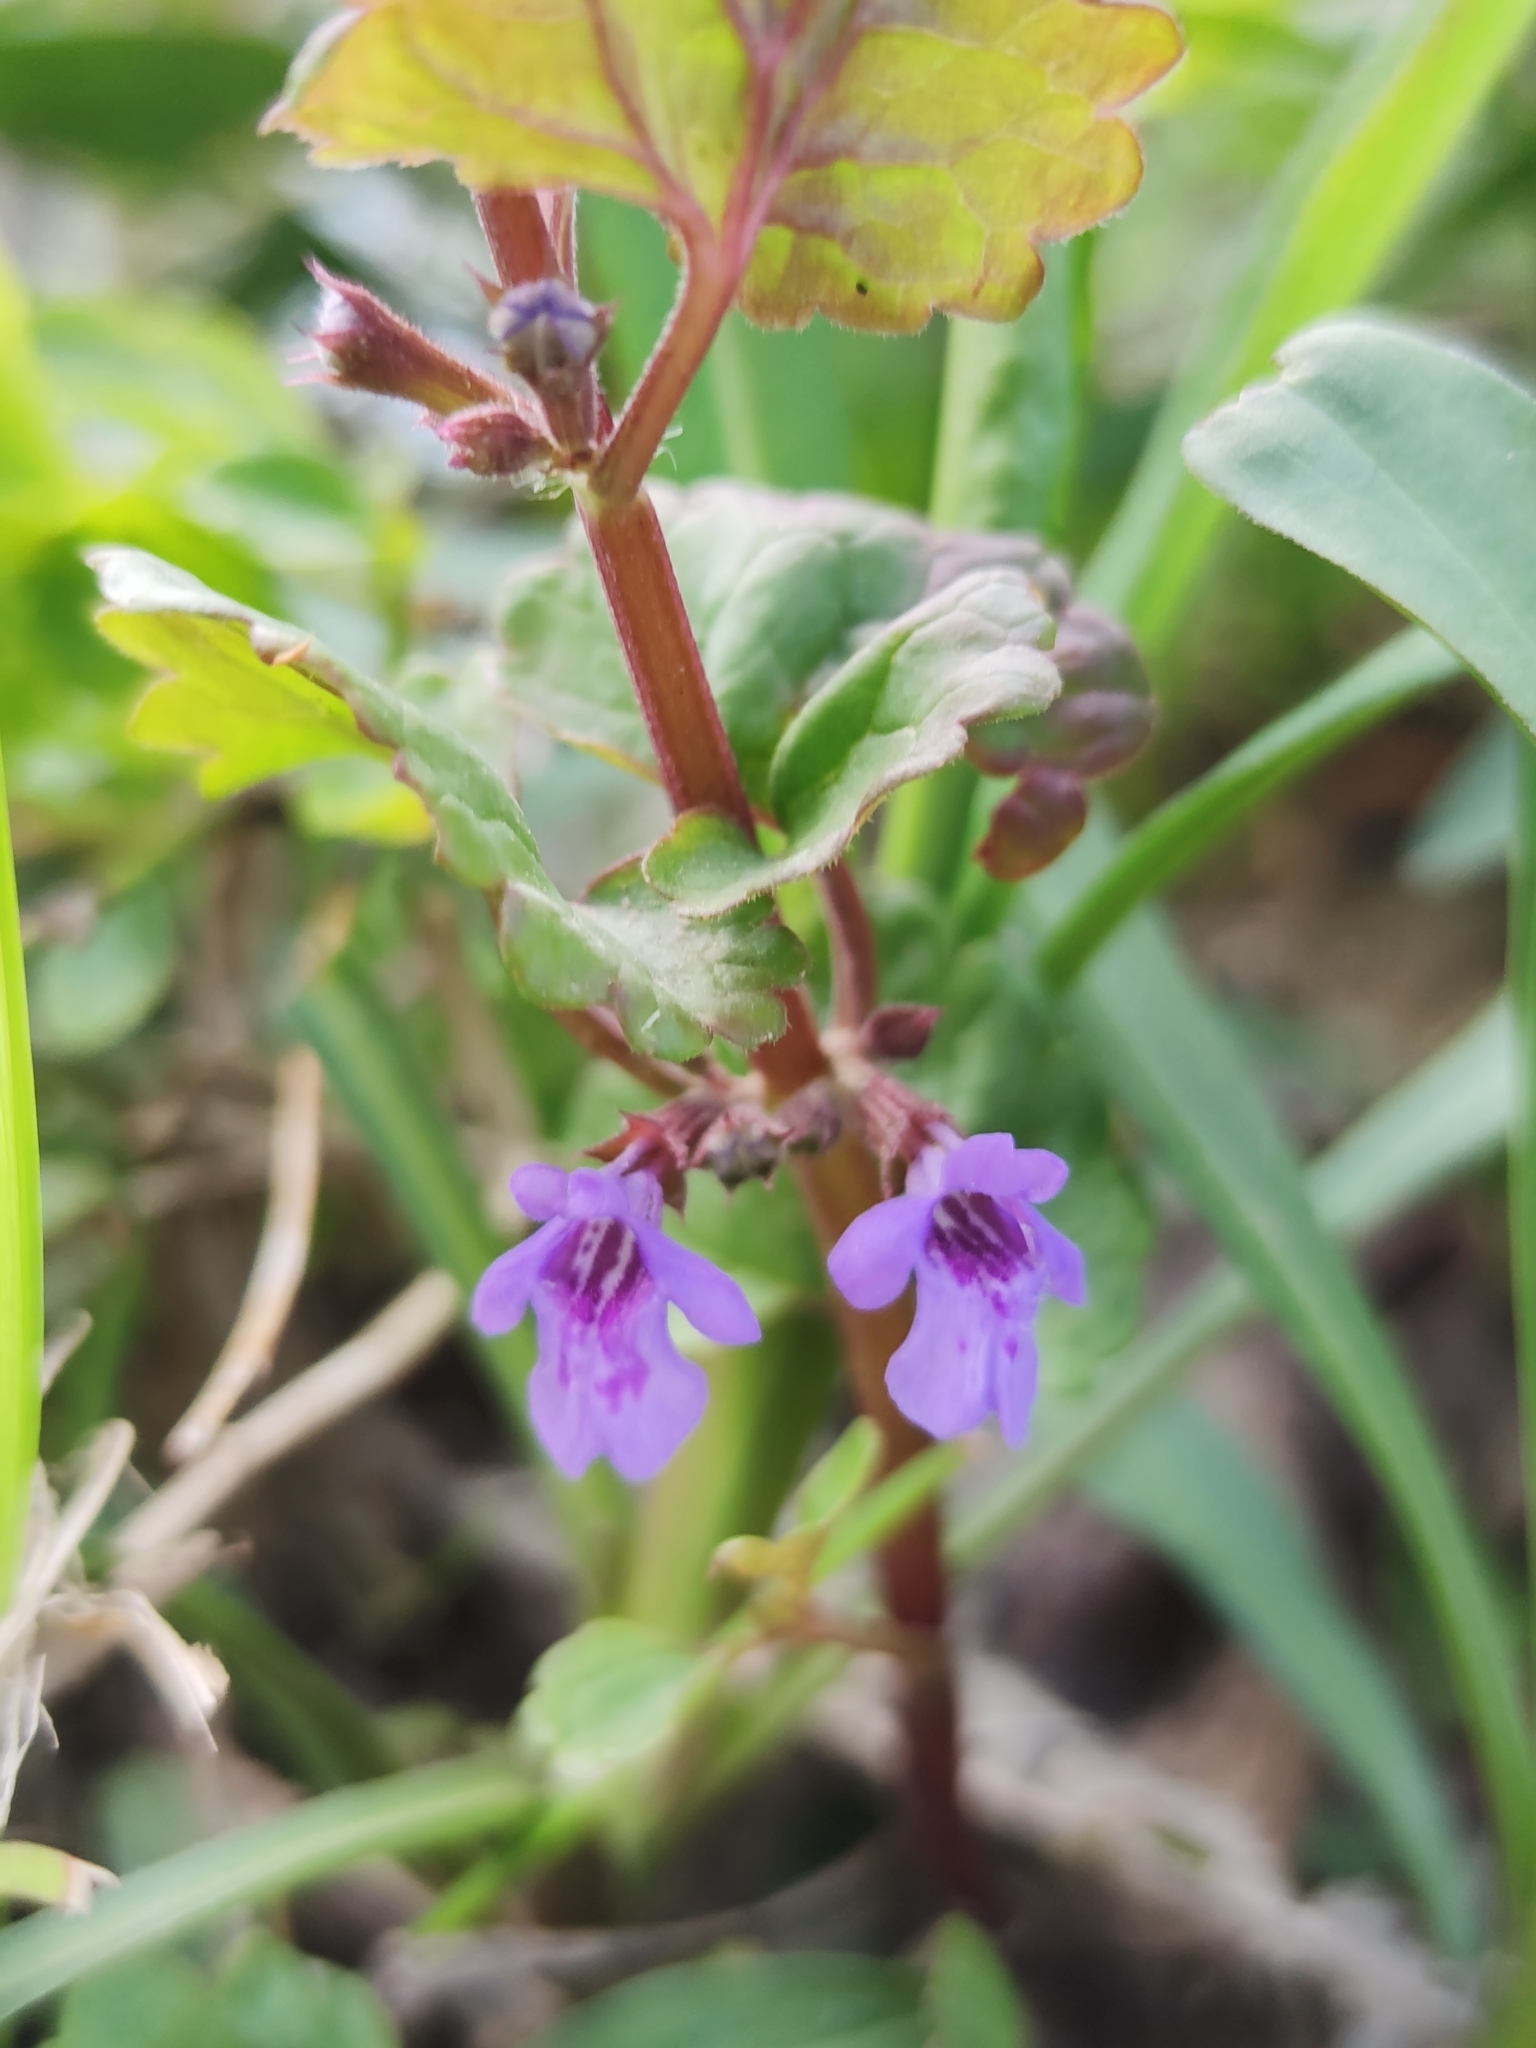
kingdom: Plantae
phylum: Tracheophyta
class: Magnoliopsida
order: Lamiales
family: Lamiaceae
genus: Glechoma
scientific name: Glechoma hederacea
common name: Ground ivy
